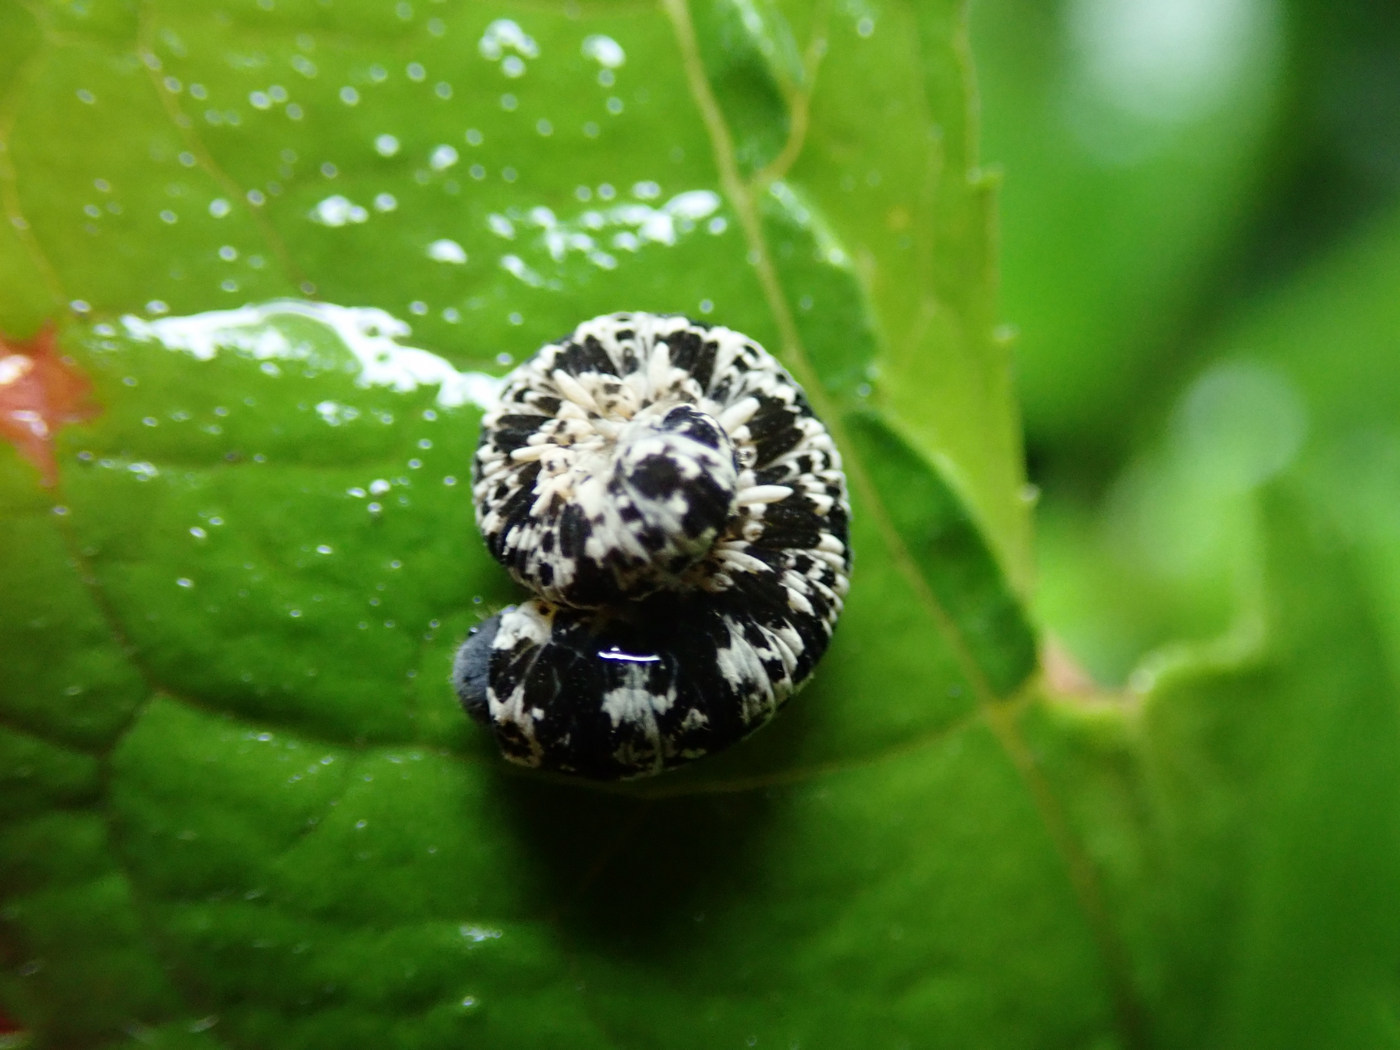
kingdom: Animalia
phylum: Arthropoda
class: Insecta
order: Hymenoptera
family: Tenthredinidae
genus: Tenthredo
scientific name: Tenthredo
